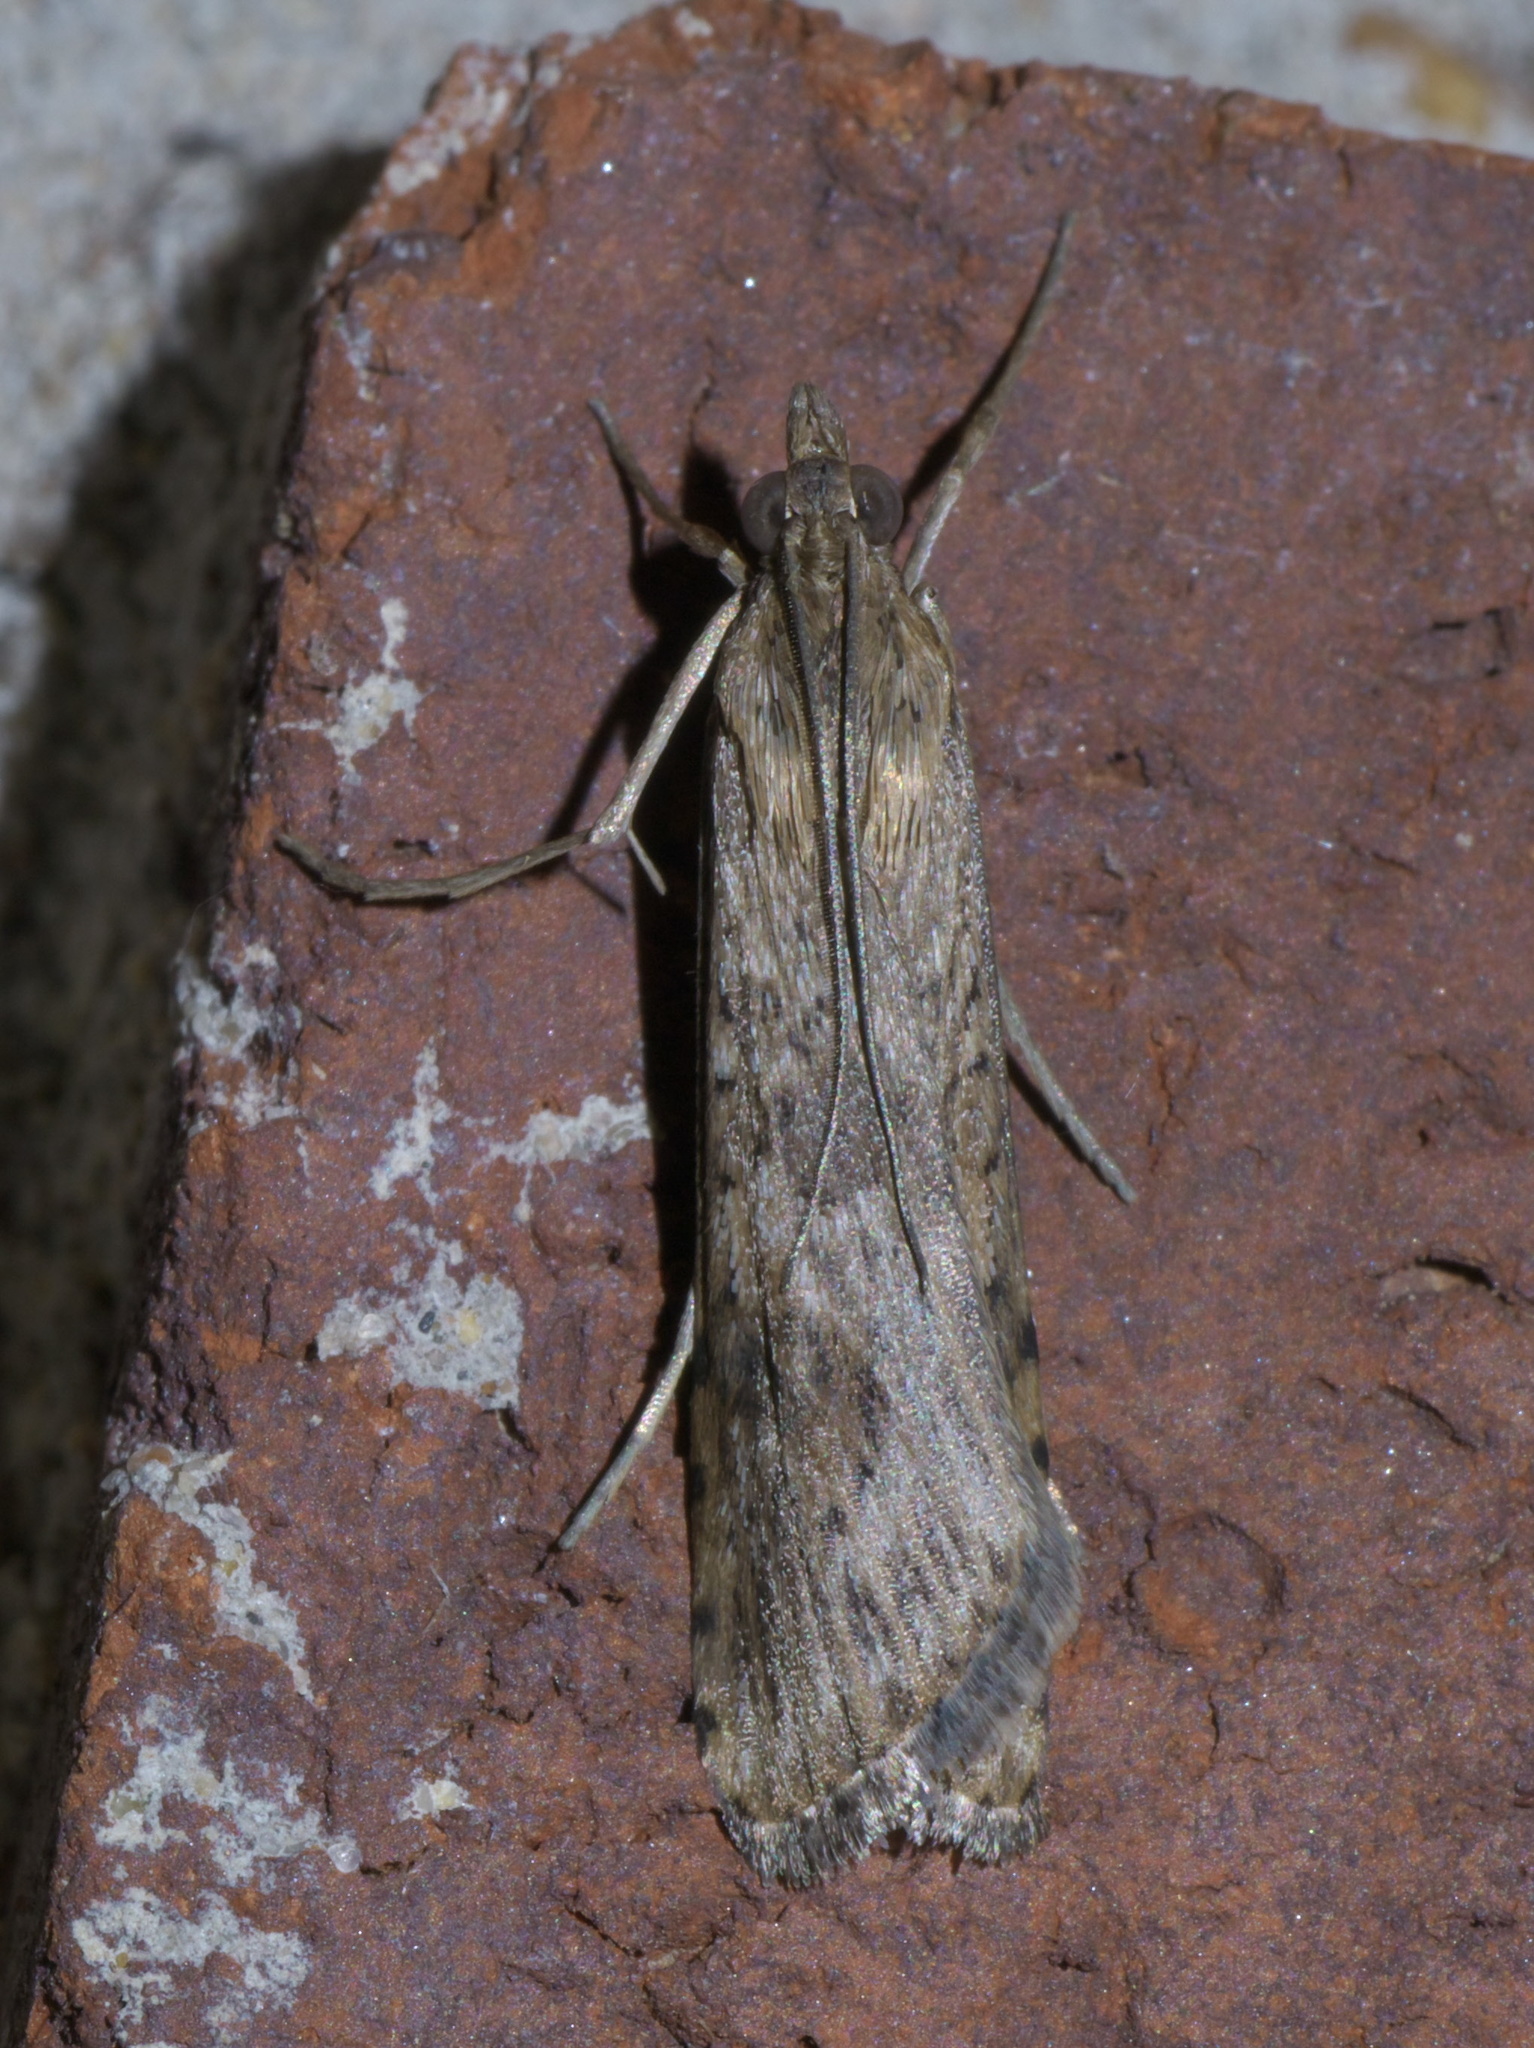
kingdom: Animalia
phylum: Arthropoda
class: Insecta
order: Lepidoptera
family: Crambidae
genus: Nomophila
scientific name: Nomophila nearctica
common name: American rush veneer
